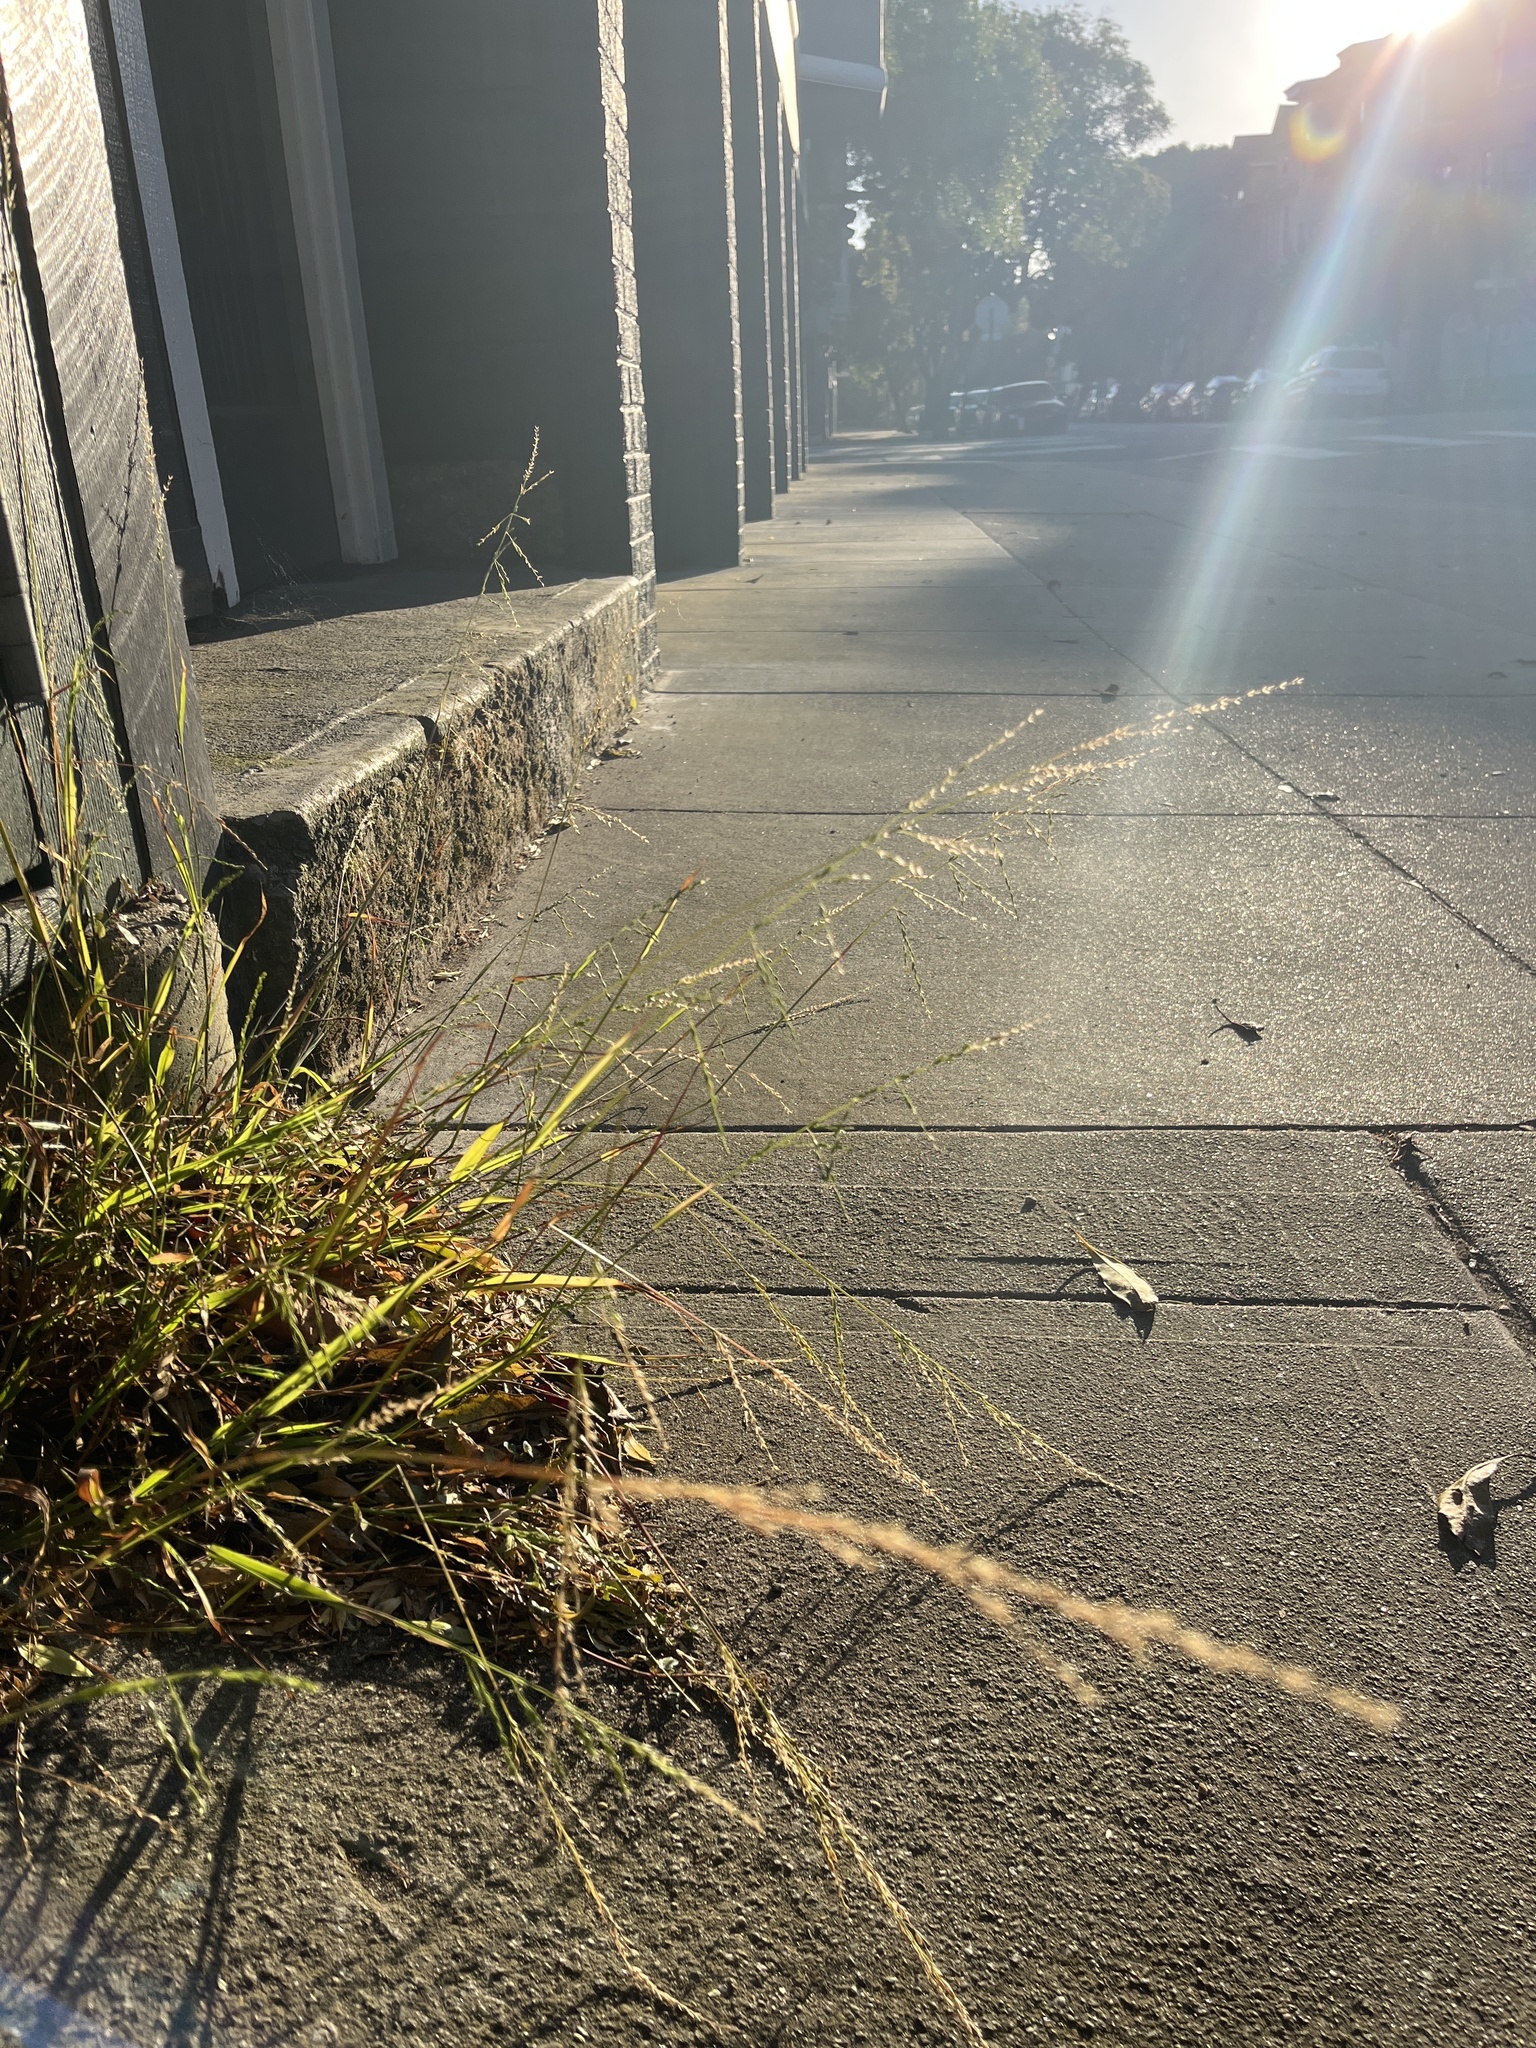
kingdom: Plantae
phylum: Tracheophyta
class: Liliopsida
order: Poales
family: Poaceae
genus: Ehrharta
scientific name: Ehrharta erecta
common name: Panic veldtgrass
